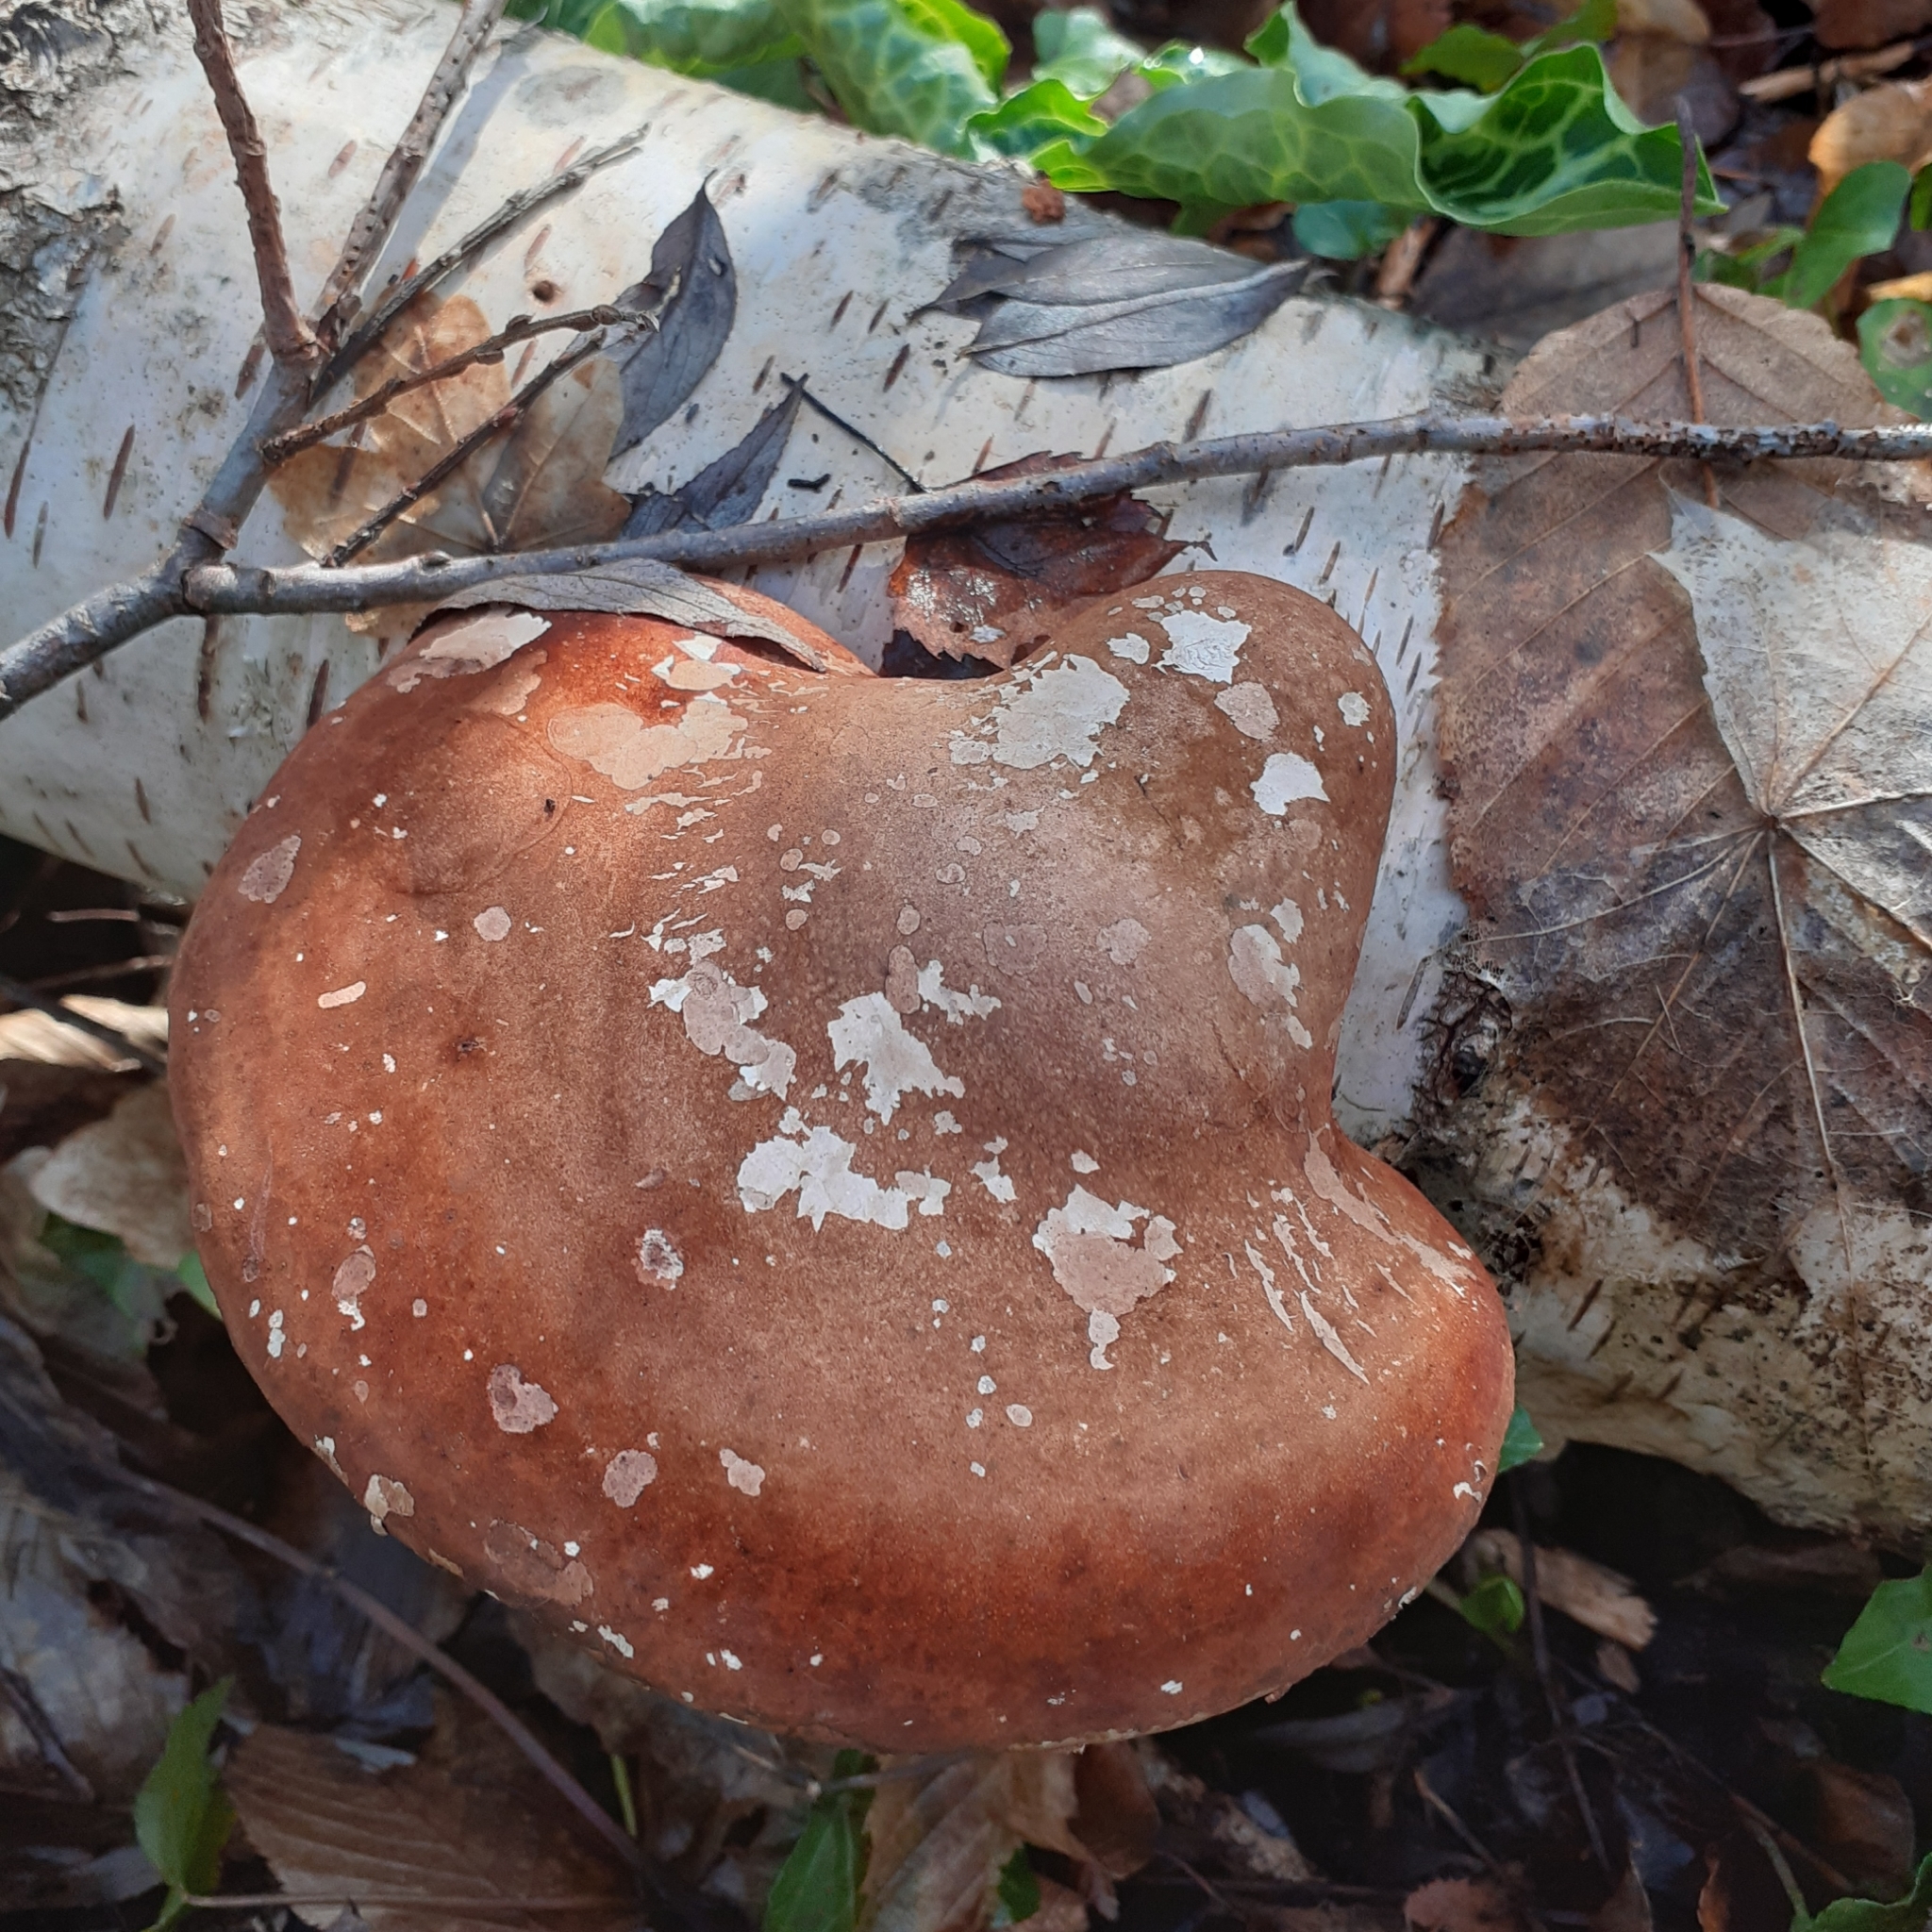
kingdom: Fungi
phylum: Basidiomycota
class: Agaricomycetes
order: Polyporales
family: Fomitopsidaceae
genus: Fomitopsis
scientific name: Fomitopsis betulina
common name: Birch polypore
